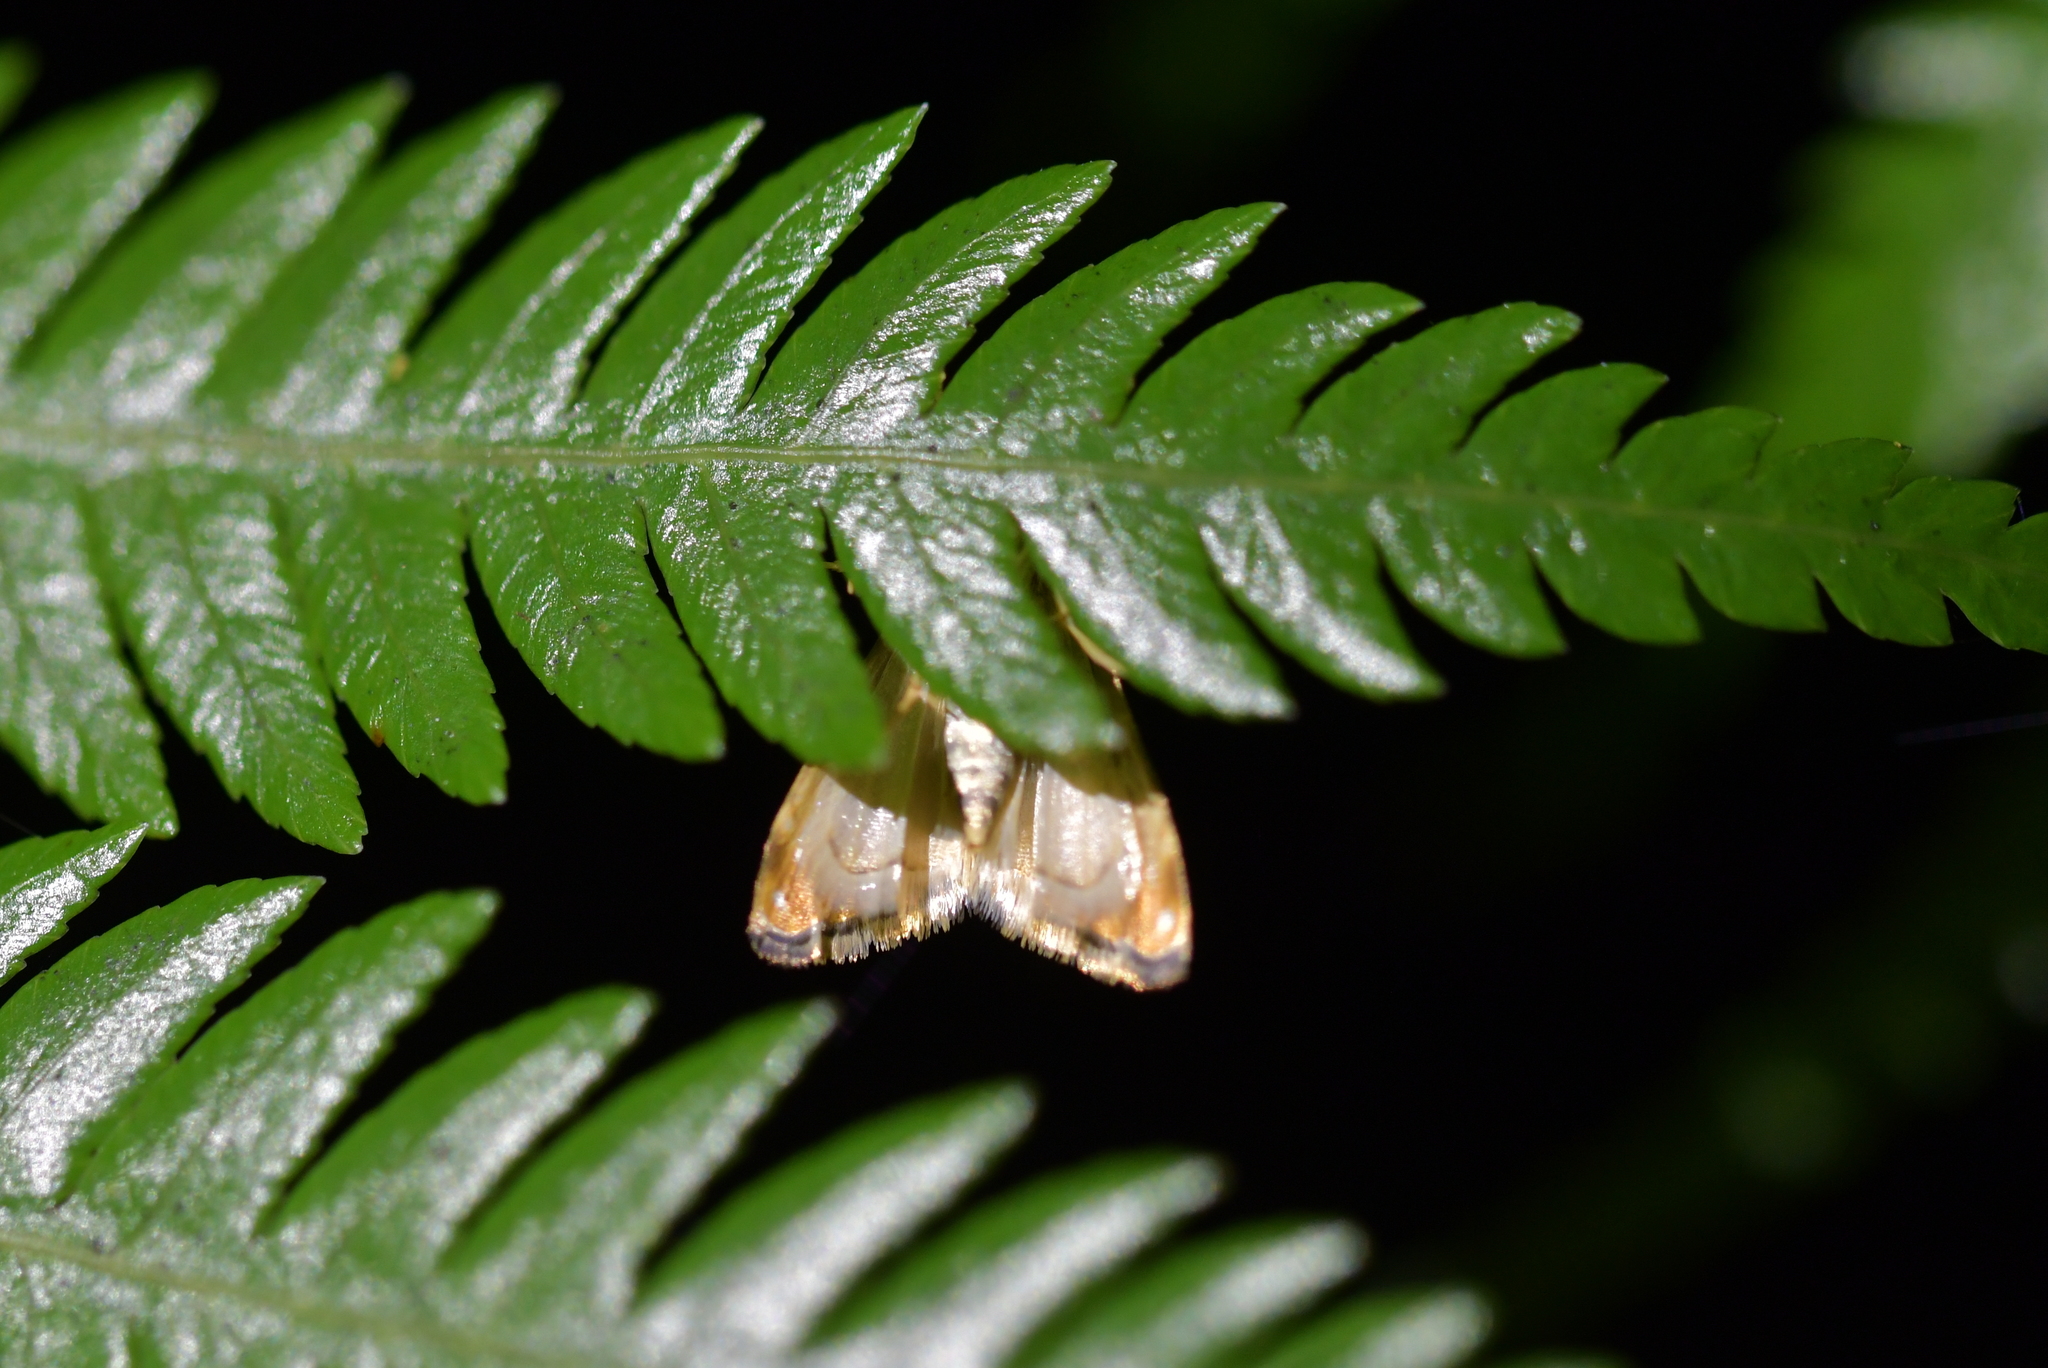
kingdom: Animalia
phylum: Arthropoda
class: Insecta
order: Lepidoptera
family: Crambidae
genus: Glaucocharis
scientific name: Glaucocharis leucoxantha
